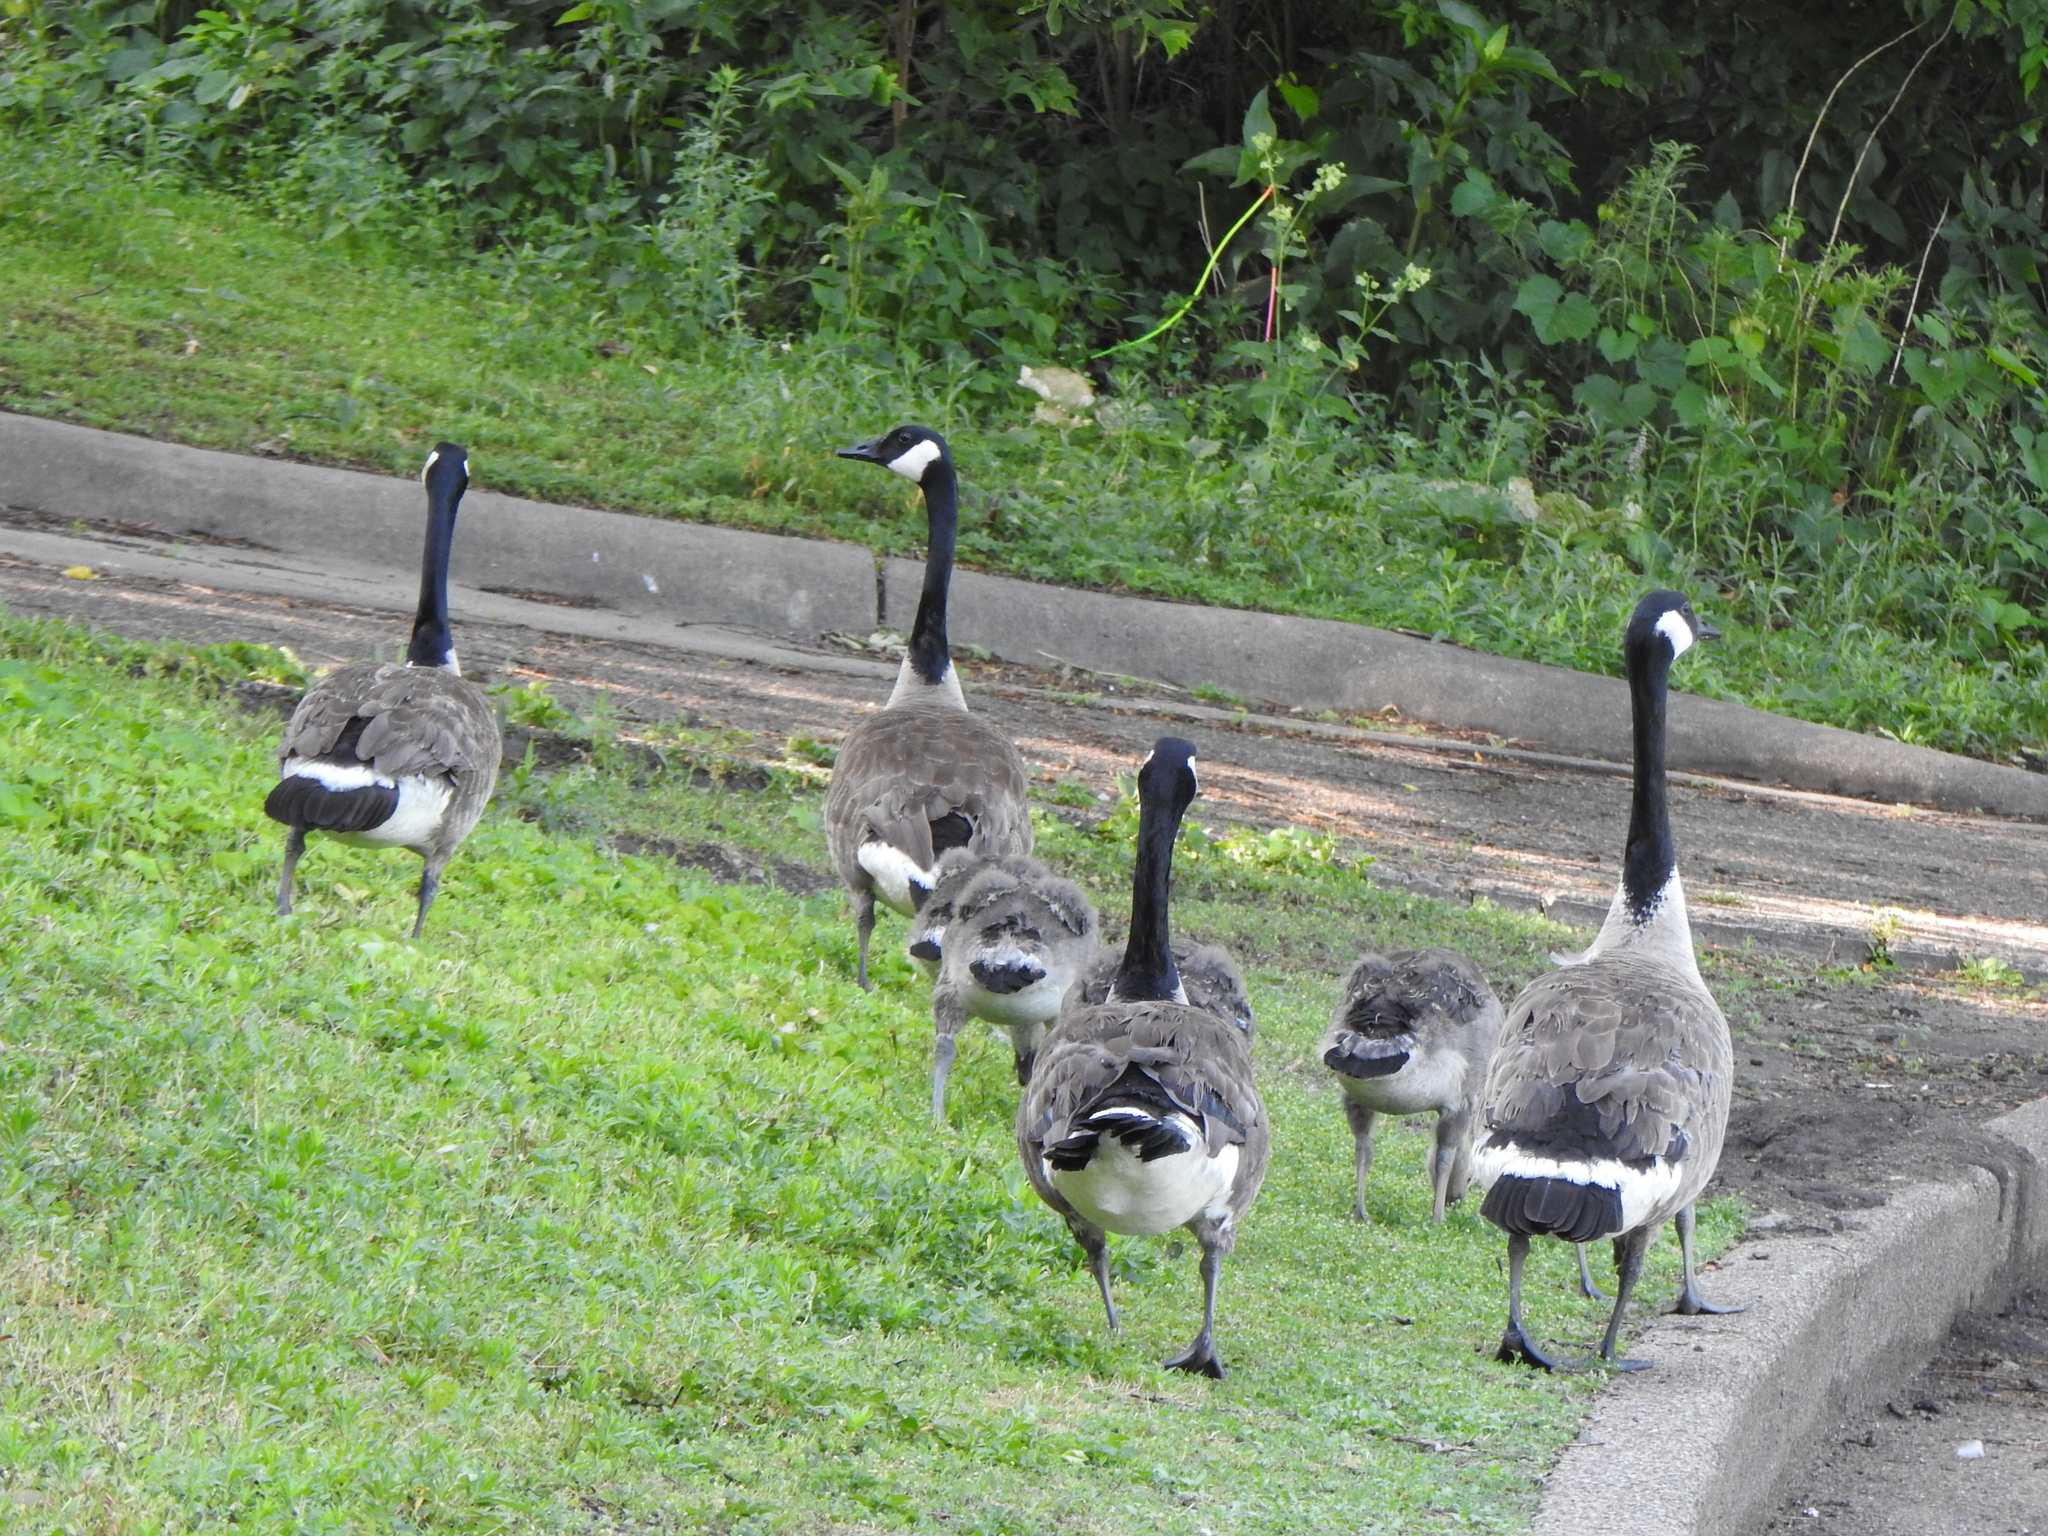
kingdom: Animalia
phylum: Chordata
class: Aves
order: Anseriformes
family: Anatidae
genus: Branta
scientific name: Branta canadensis
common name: Canada goose
